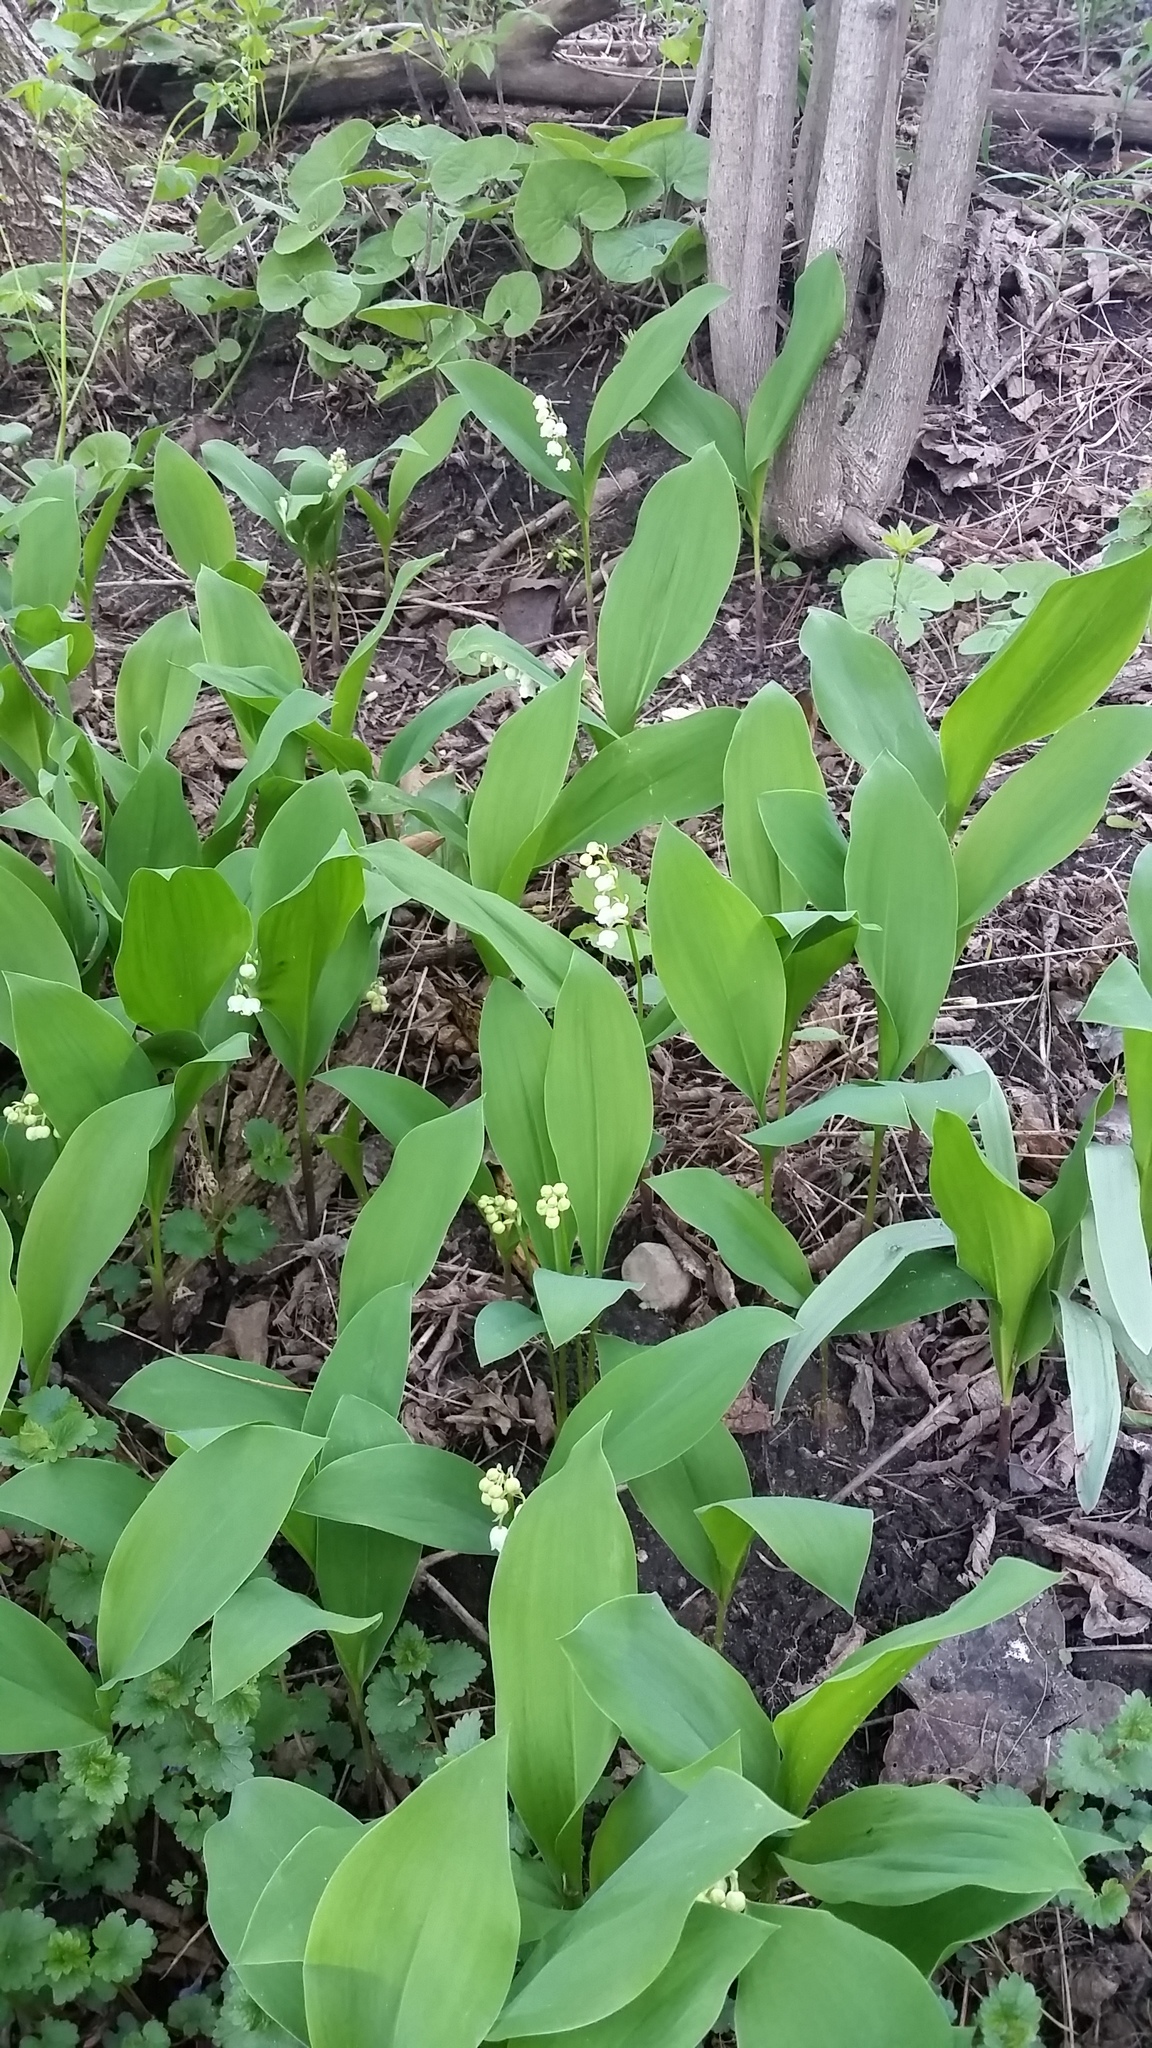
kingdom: Plantae
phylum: Tracheophyta
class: Liliopsida
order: Asparagales
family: Asparagaceae
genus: Convallaria
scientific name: Convallaria majalis
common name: Lily-of-the-valley
